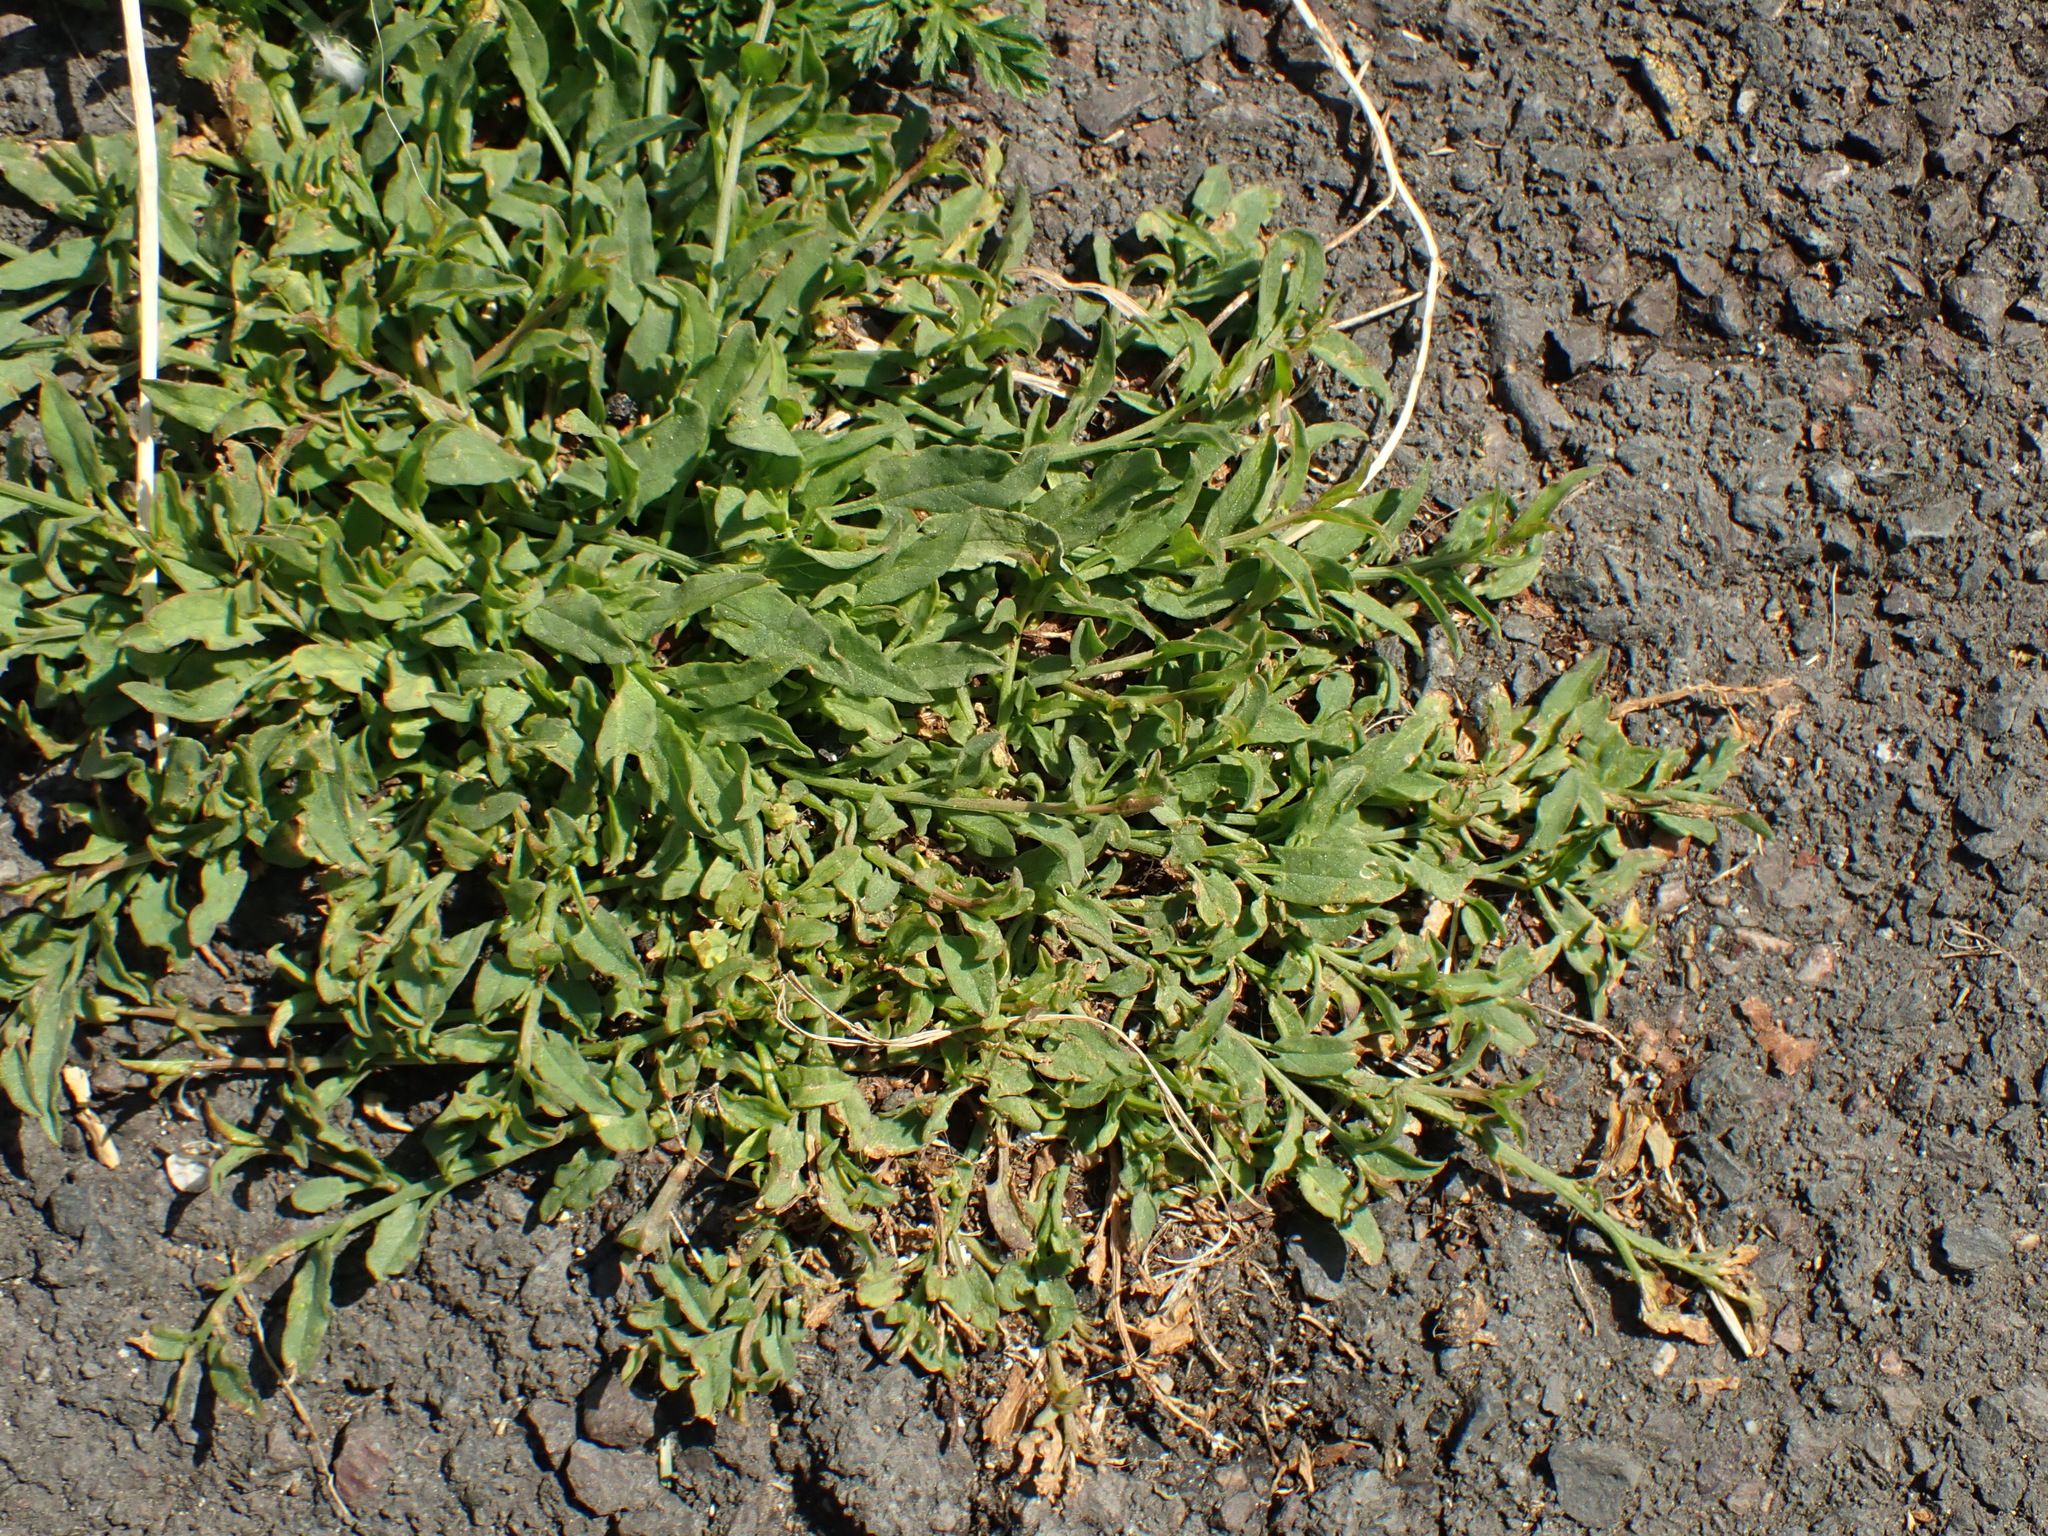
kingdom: Plantae
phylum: Tracheophyta
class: Magnoliopsida
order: Solanales
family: Convolvulaceae
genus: Convolvulus
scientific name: Convolvulus arvensis
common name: Field bindweed
